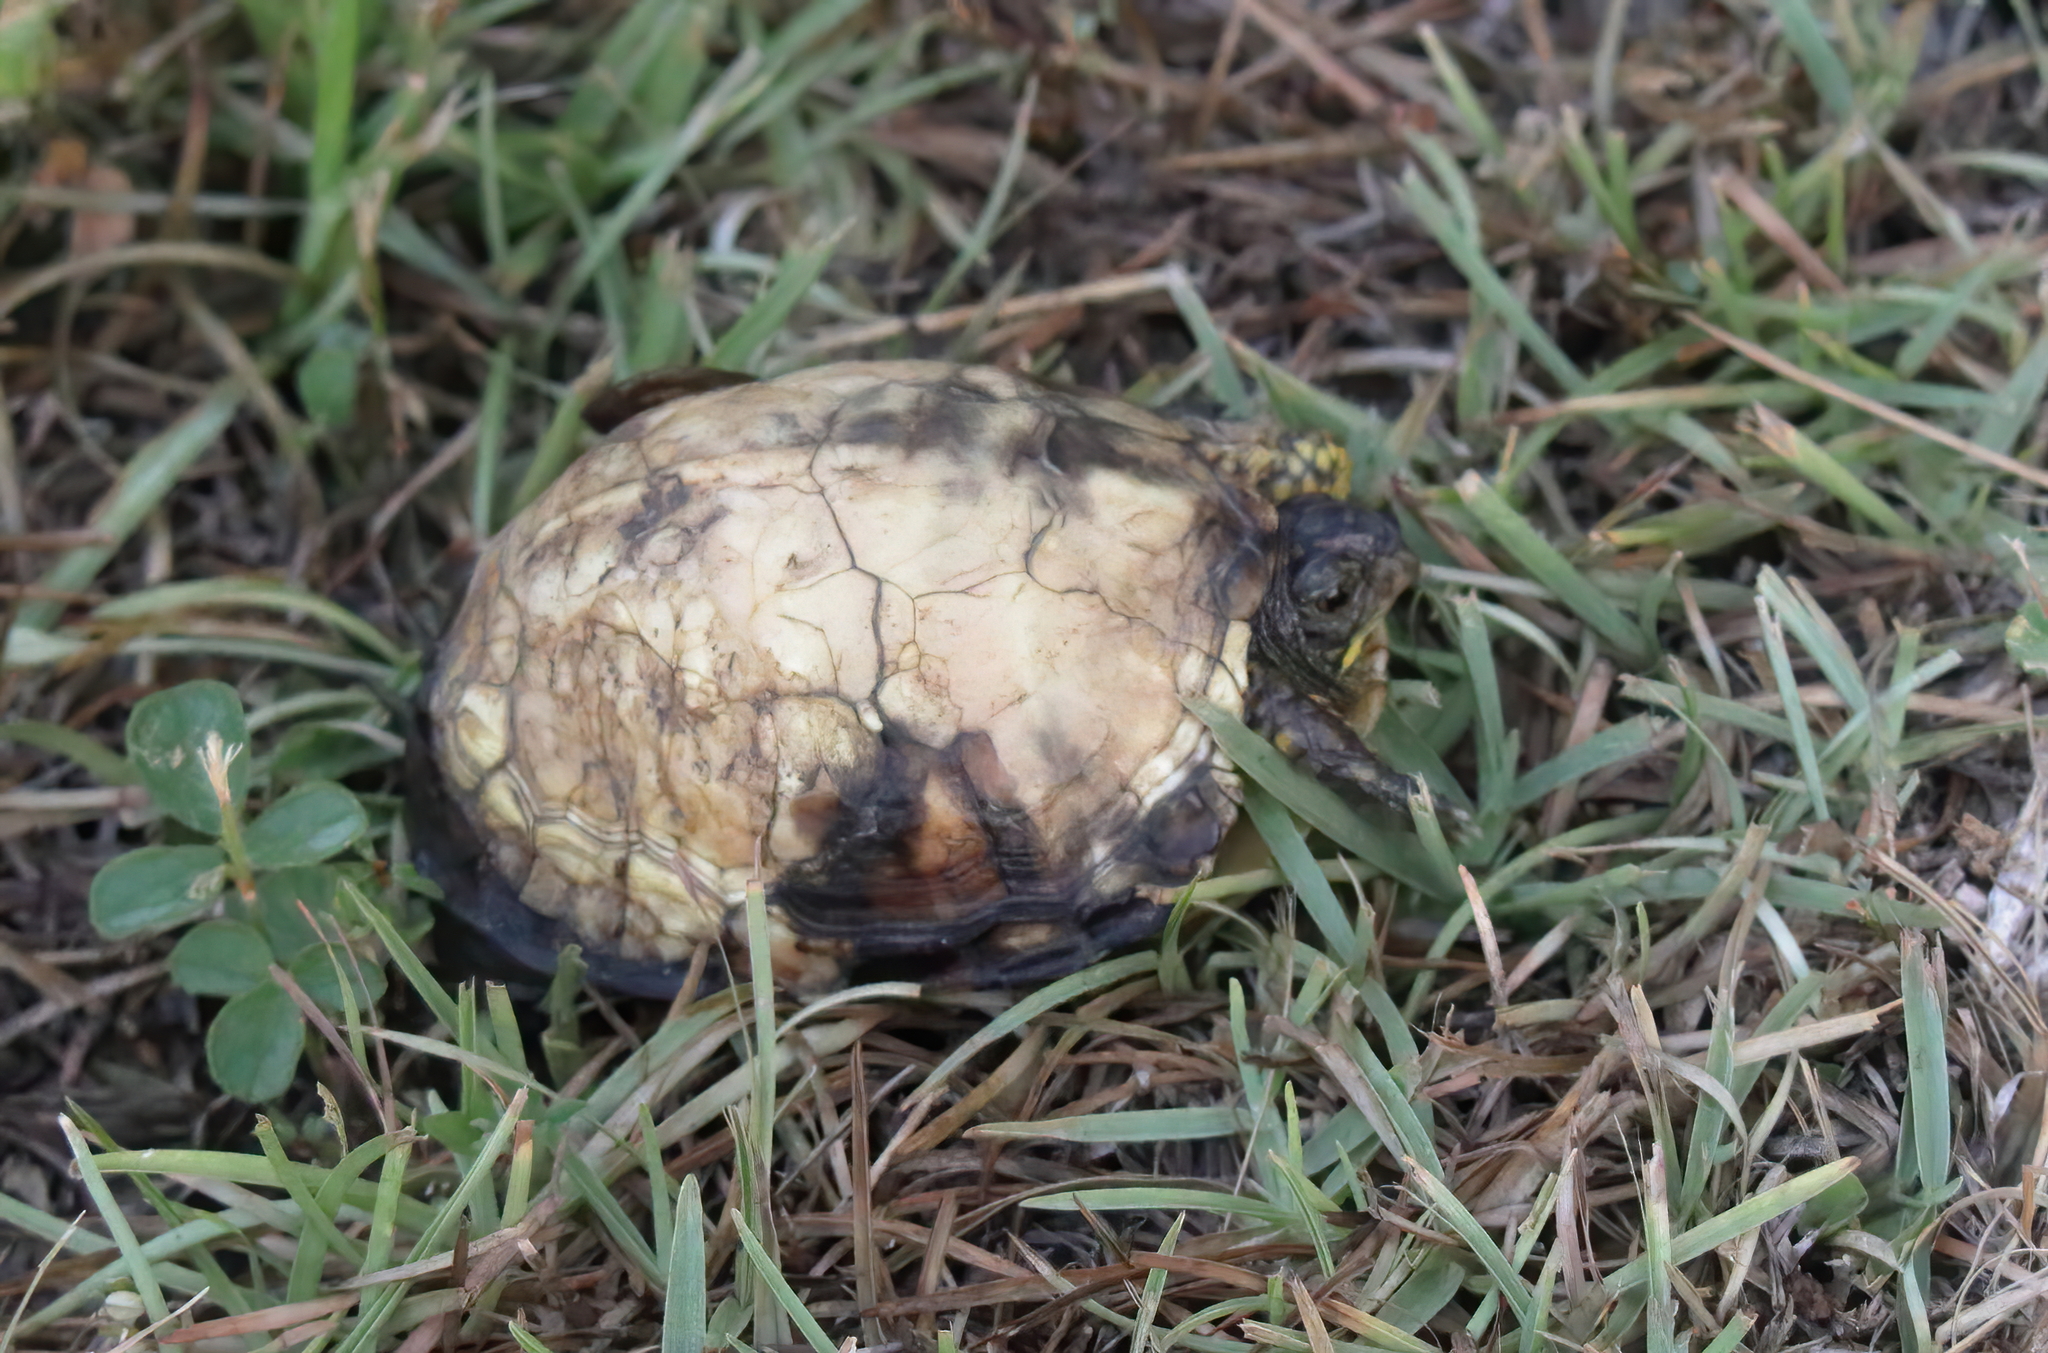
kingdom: Animalia
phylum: Chordata
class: Testudines
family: Emydidae
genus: Terrapene
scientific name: Terrapene carolina
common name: Common box turtle
